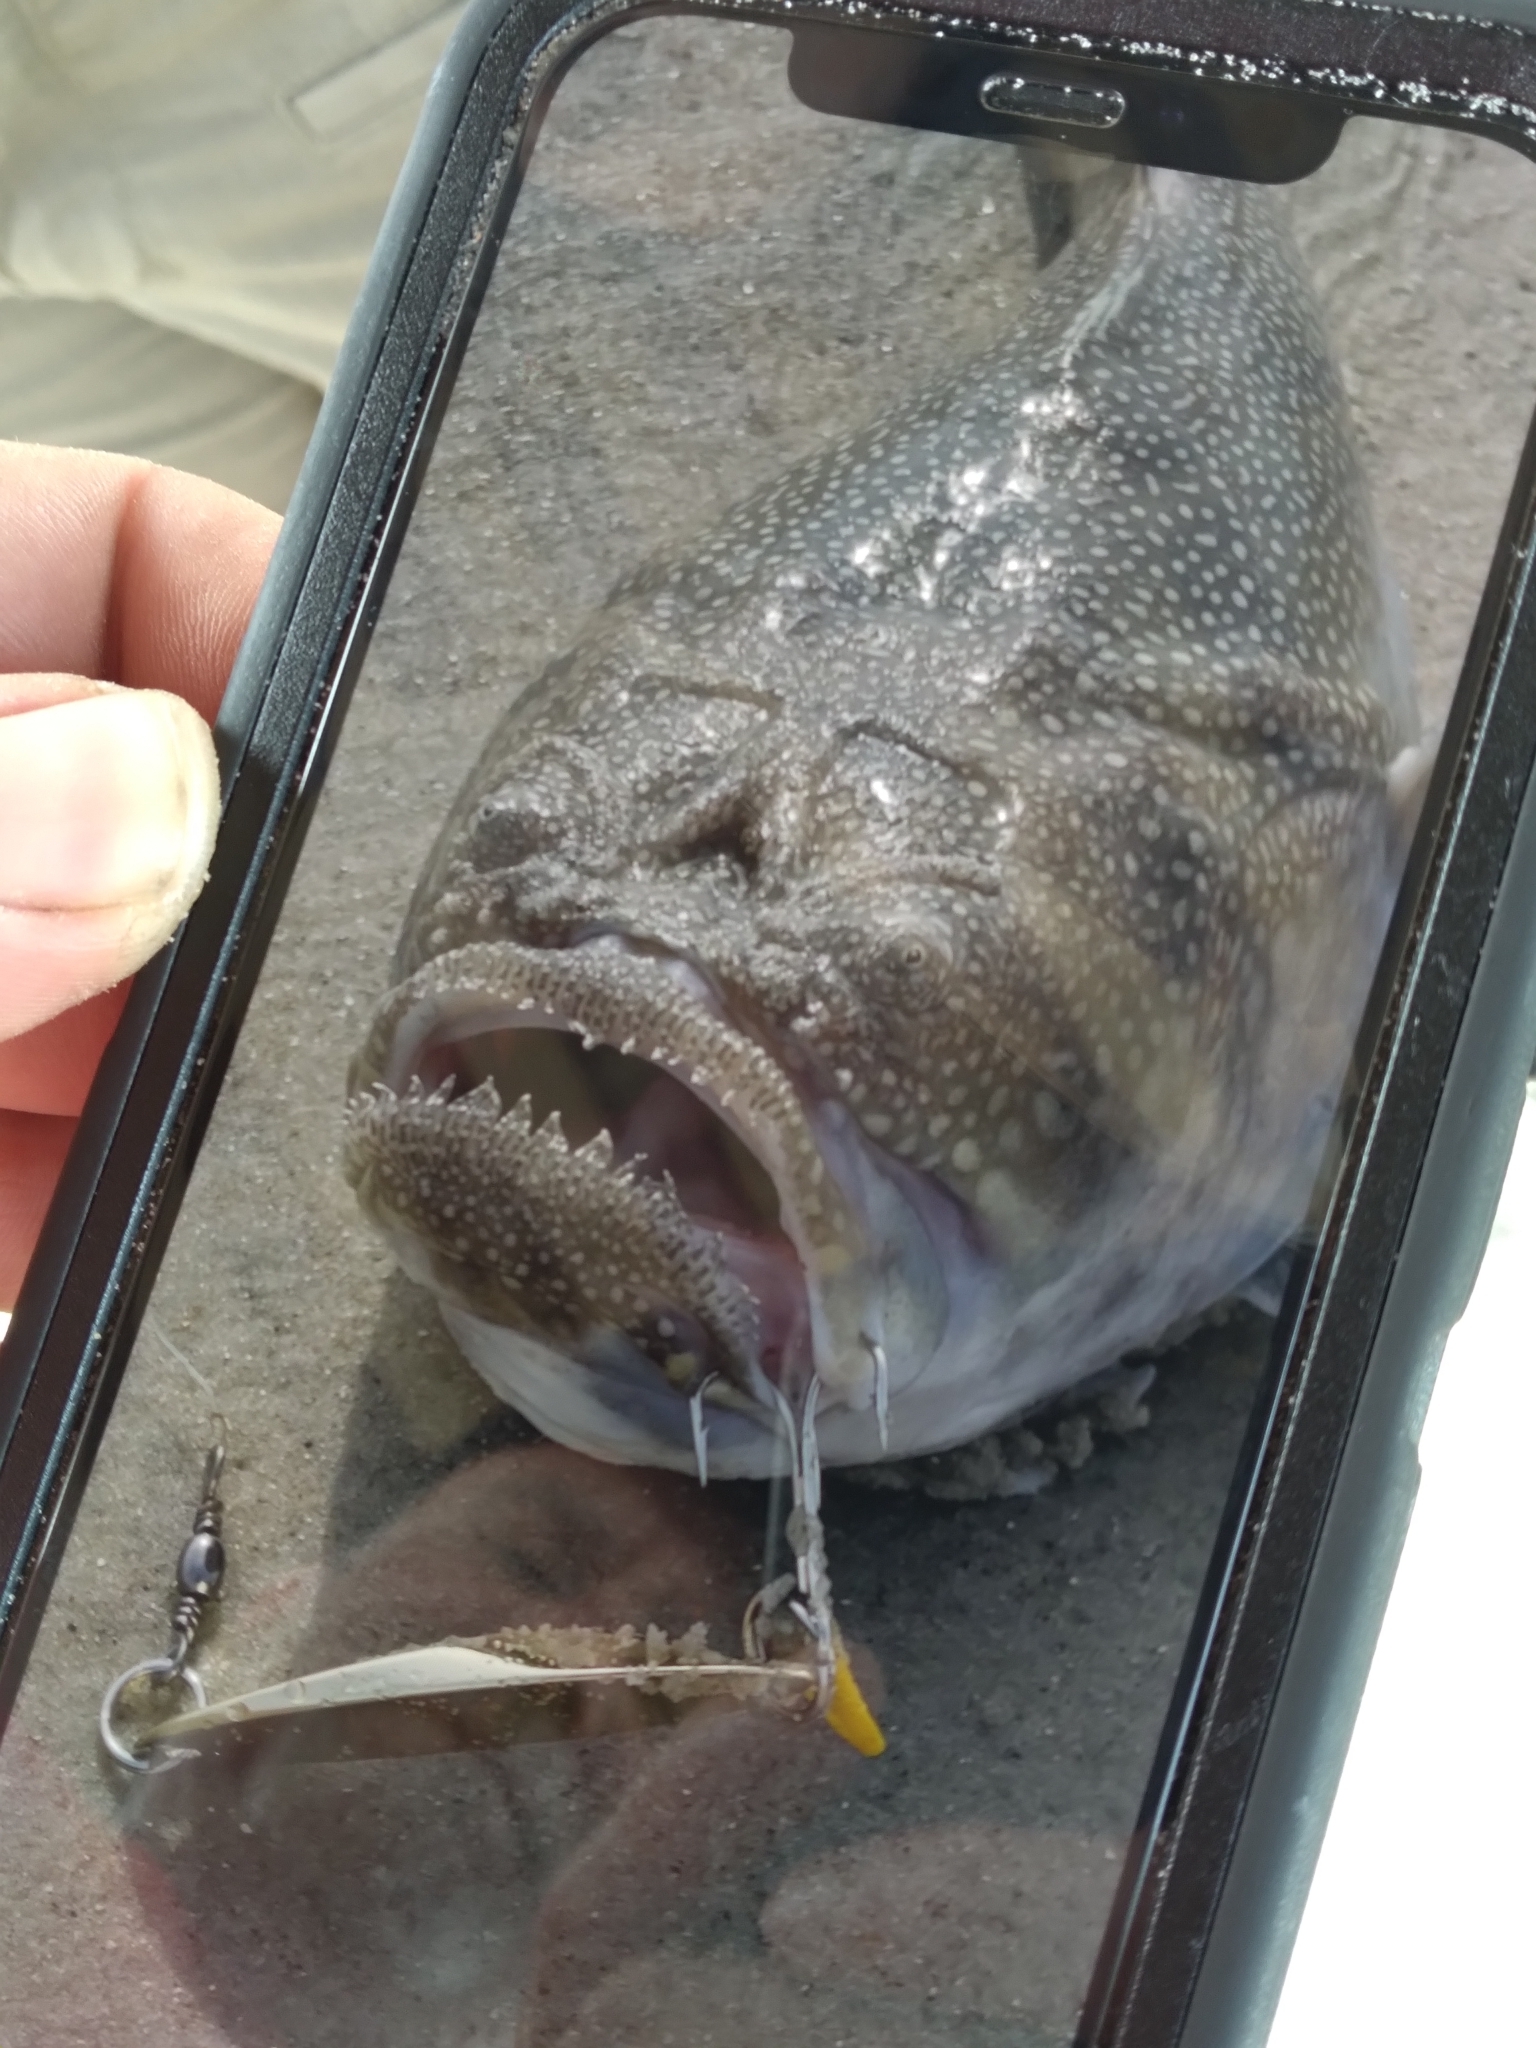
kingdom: Animalia
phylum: Chordata
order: Perciformes
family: Uranoscopidae
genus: Astroscopus
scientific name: Astroscopus y-graecum
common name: Southern stargazer
